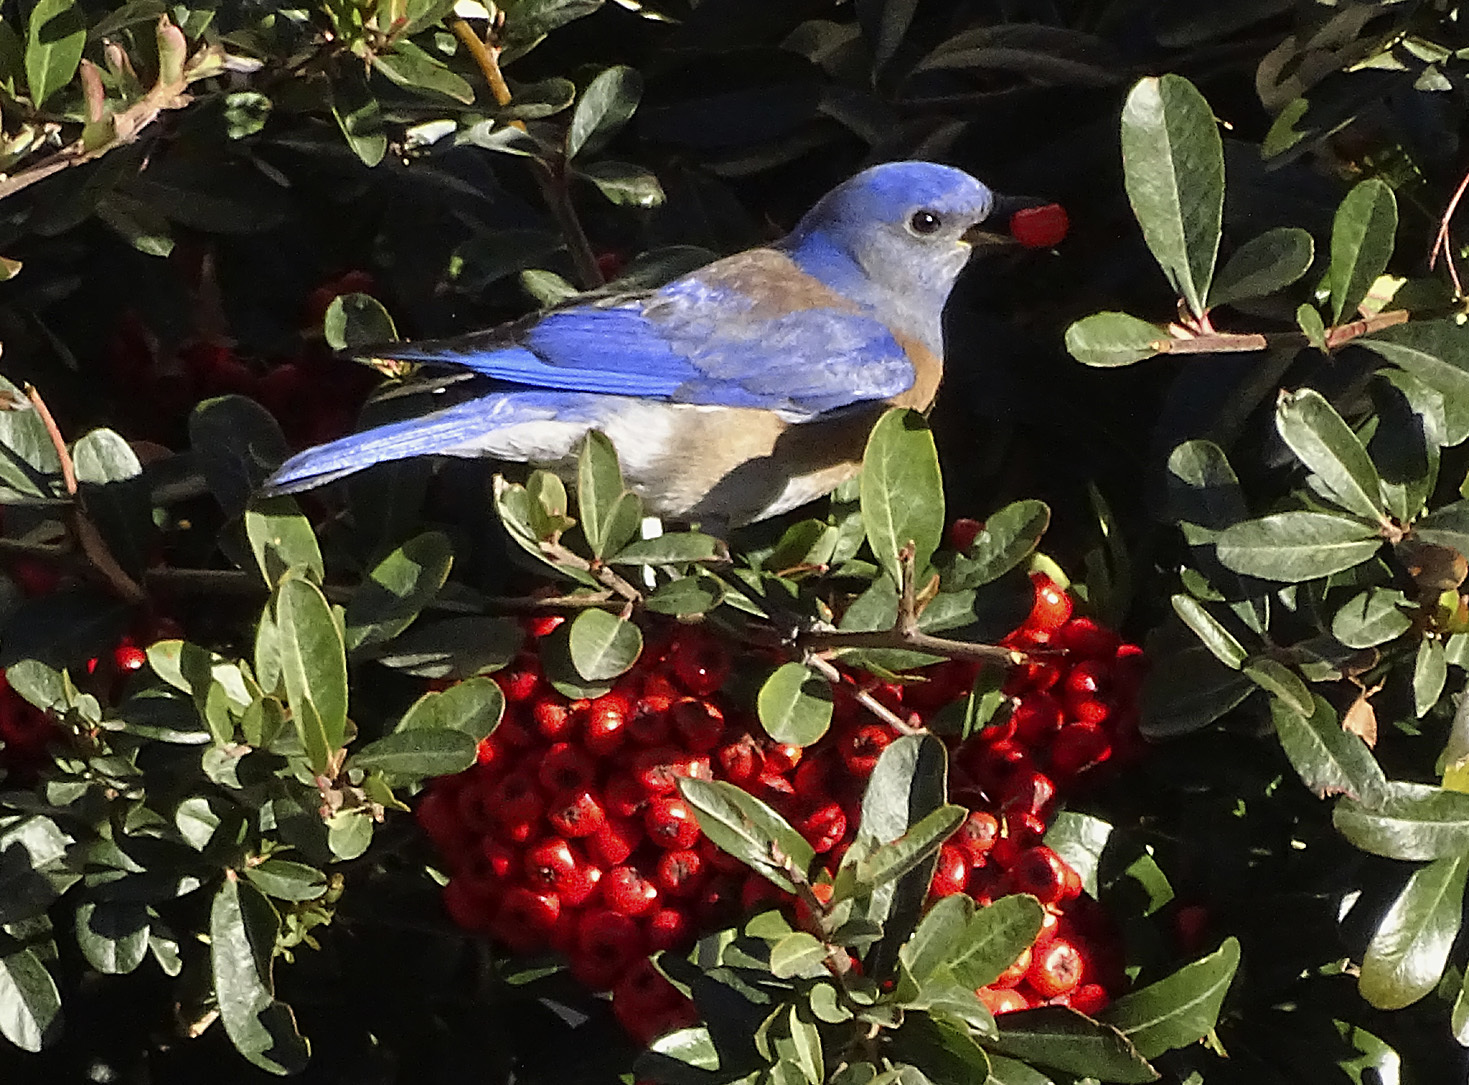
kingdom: Animalia
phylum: Chordata
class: Aves
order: Passeriformes
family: Turdidae
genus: Sialia
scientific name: Sialia mexicana
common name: Western bluebird
